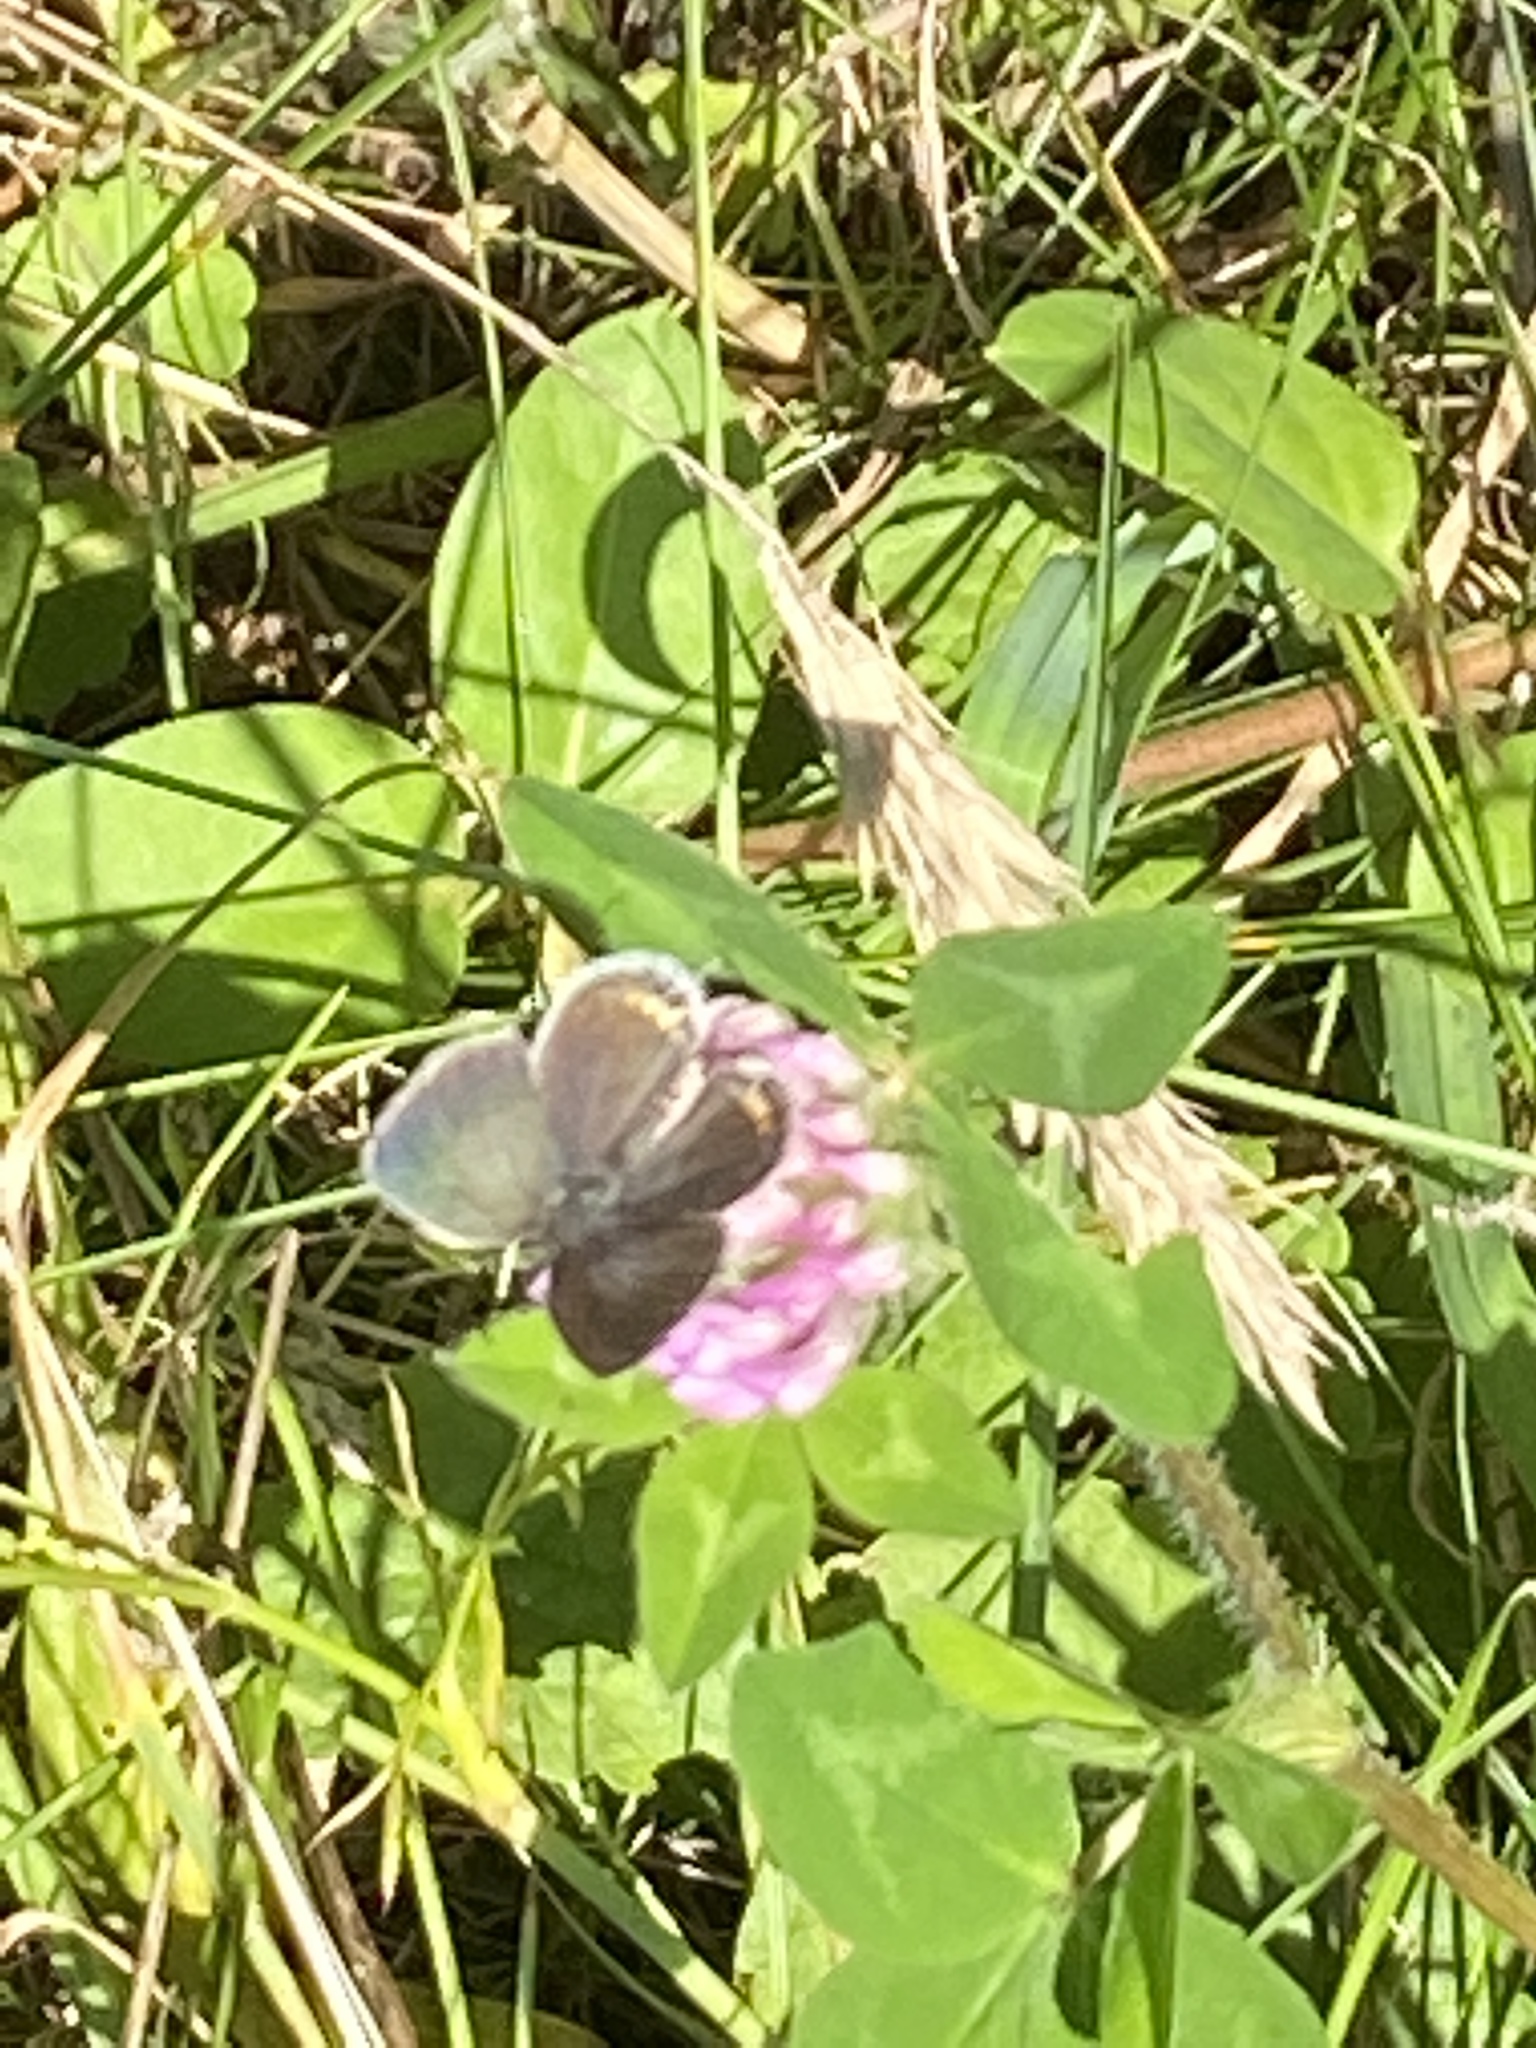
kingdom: Animalia
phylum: Arthropoda
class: Insecta
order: Lepidoptera
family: Lycaenidae
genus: Elkalyce
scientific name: Elkalyce comyntas
